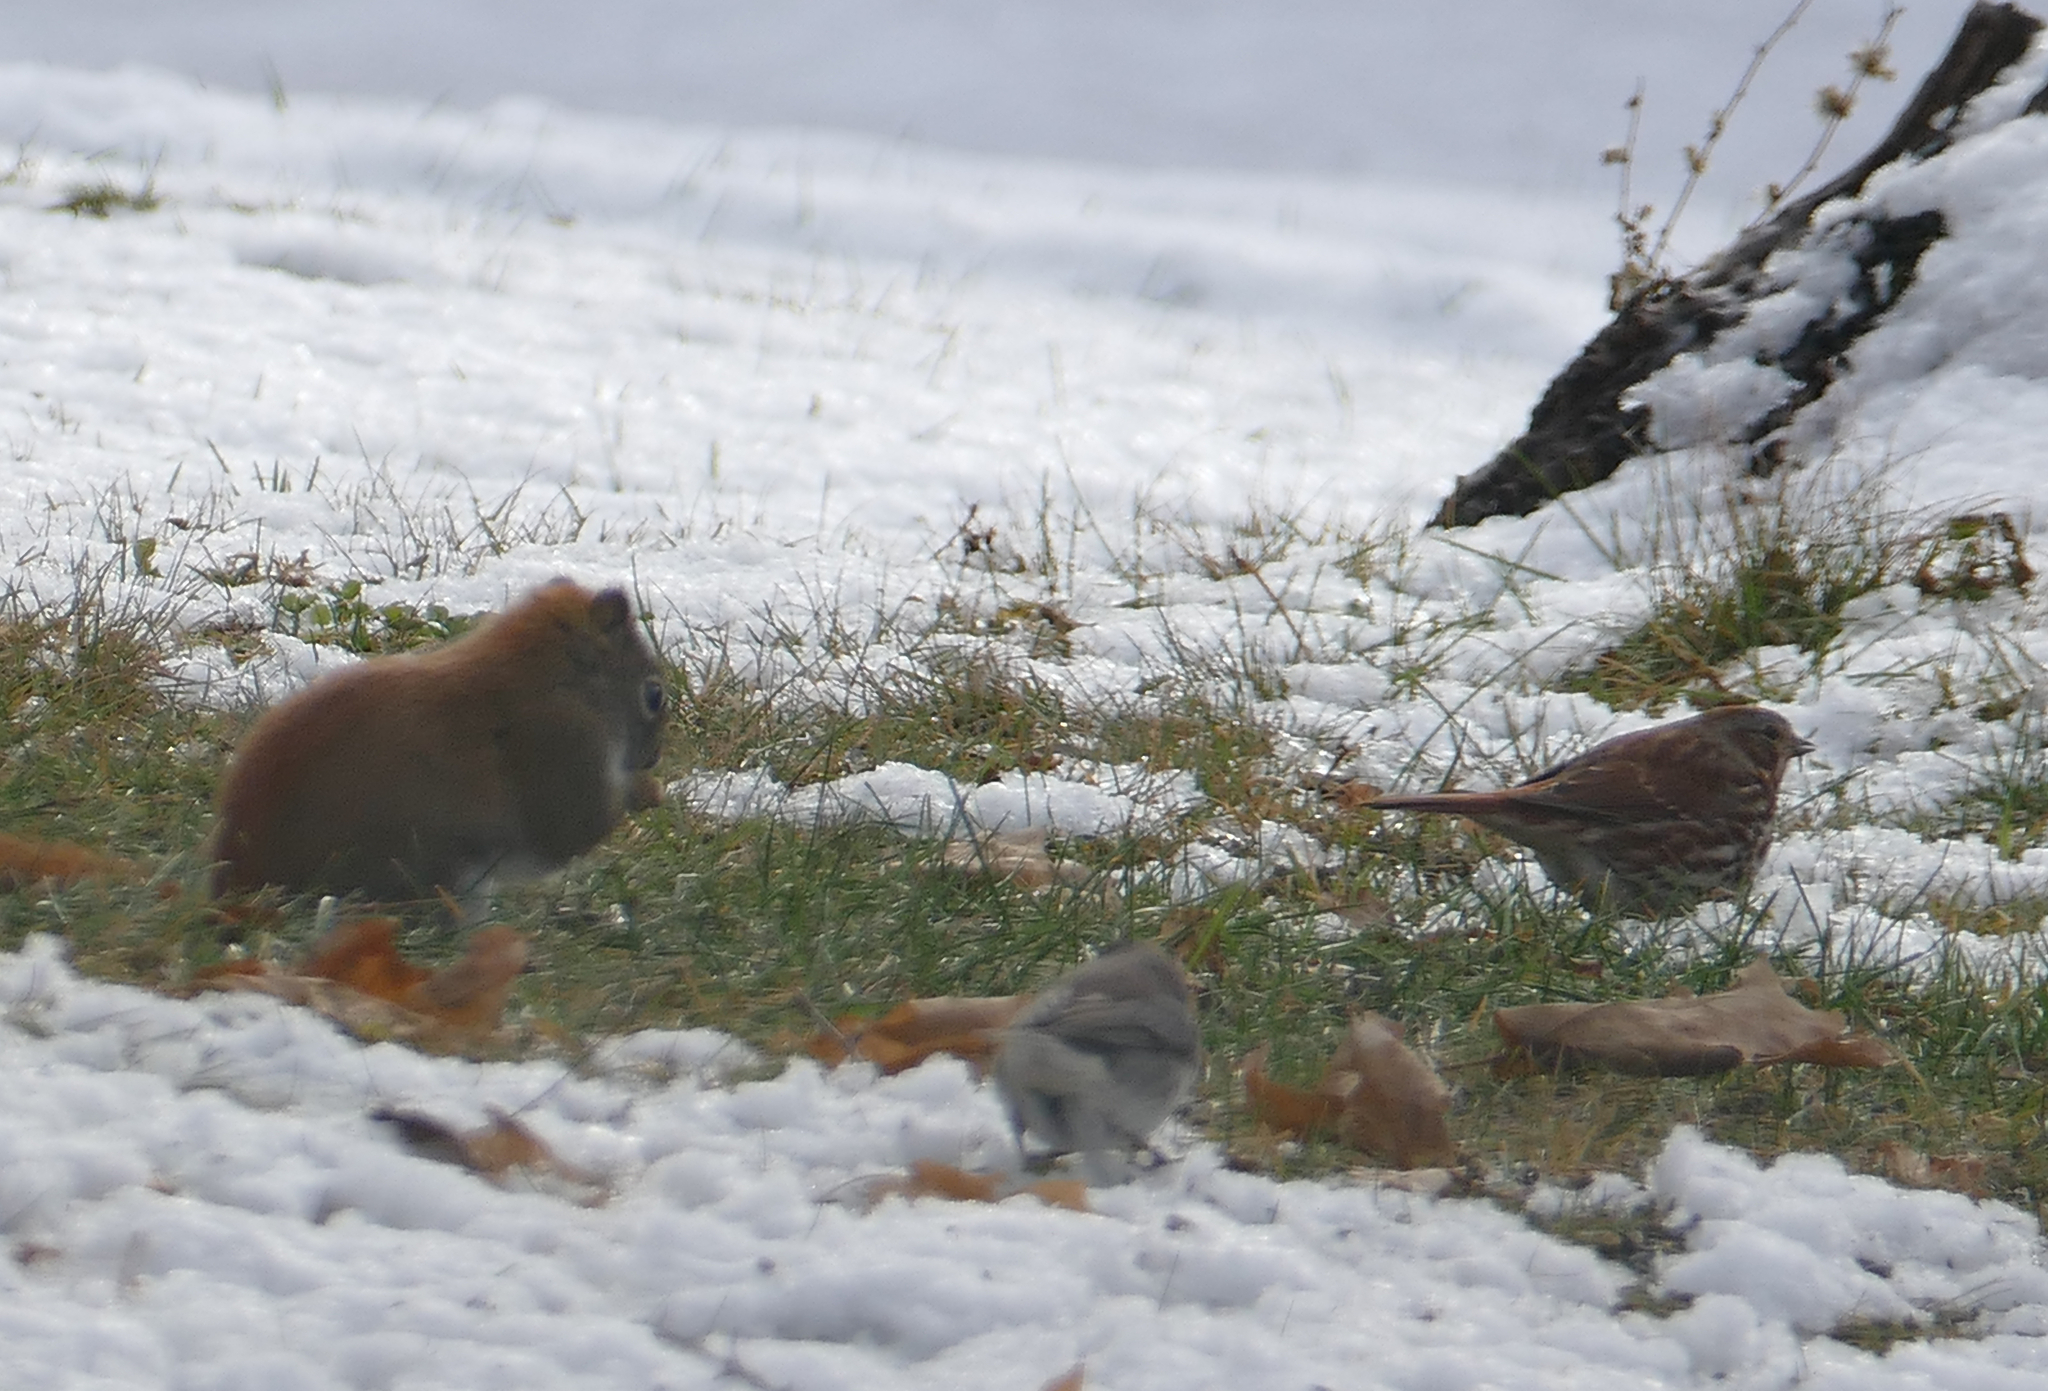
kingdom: Animalia
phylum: Chordata
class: Mammalia
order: Rodentia
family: Sciuridae
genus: Tamiasciurus
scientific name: Tamiasciurus hudsonicus
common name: Red squirrel
